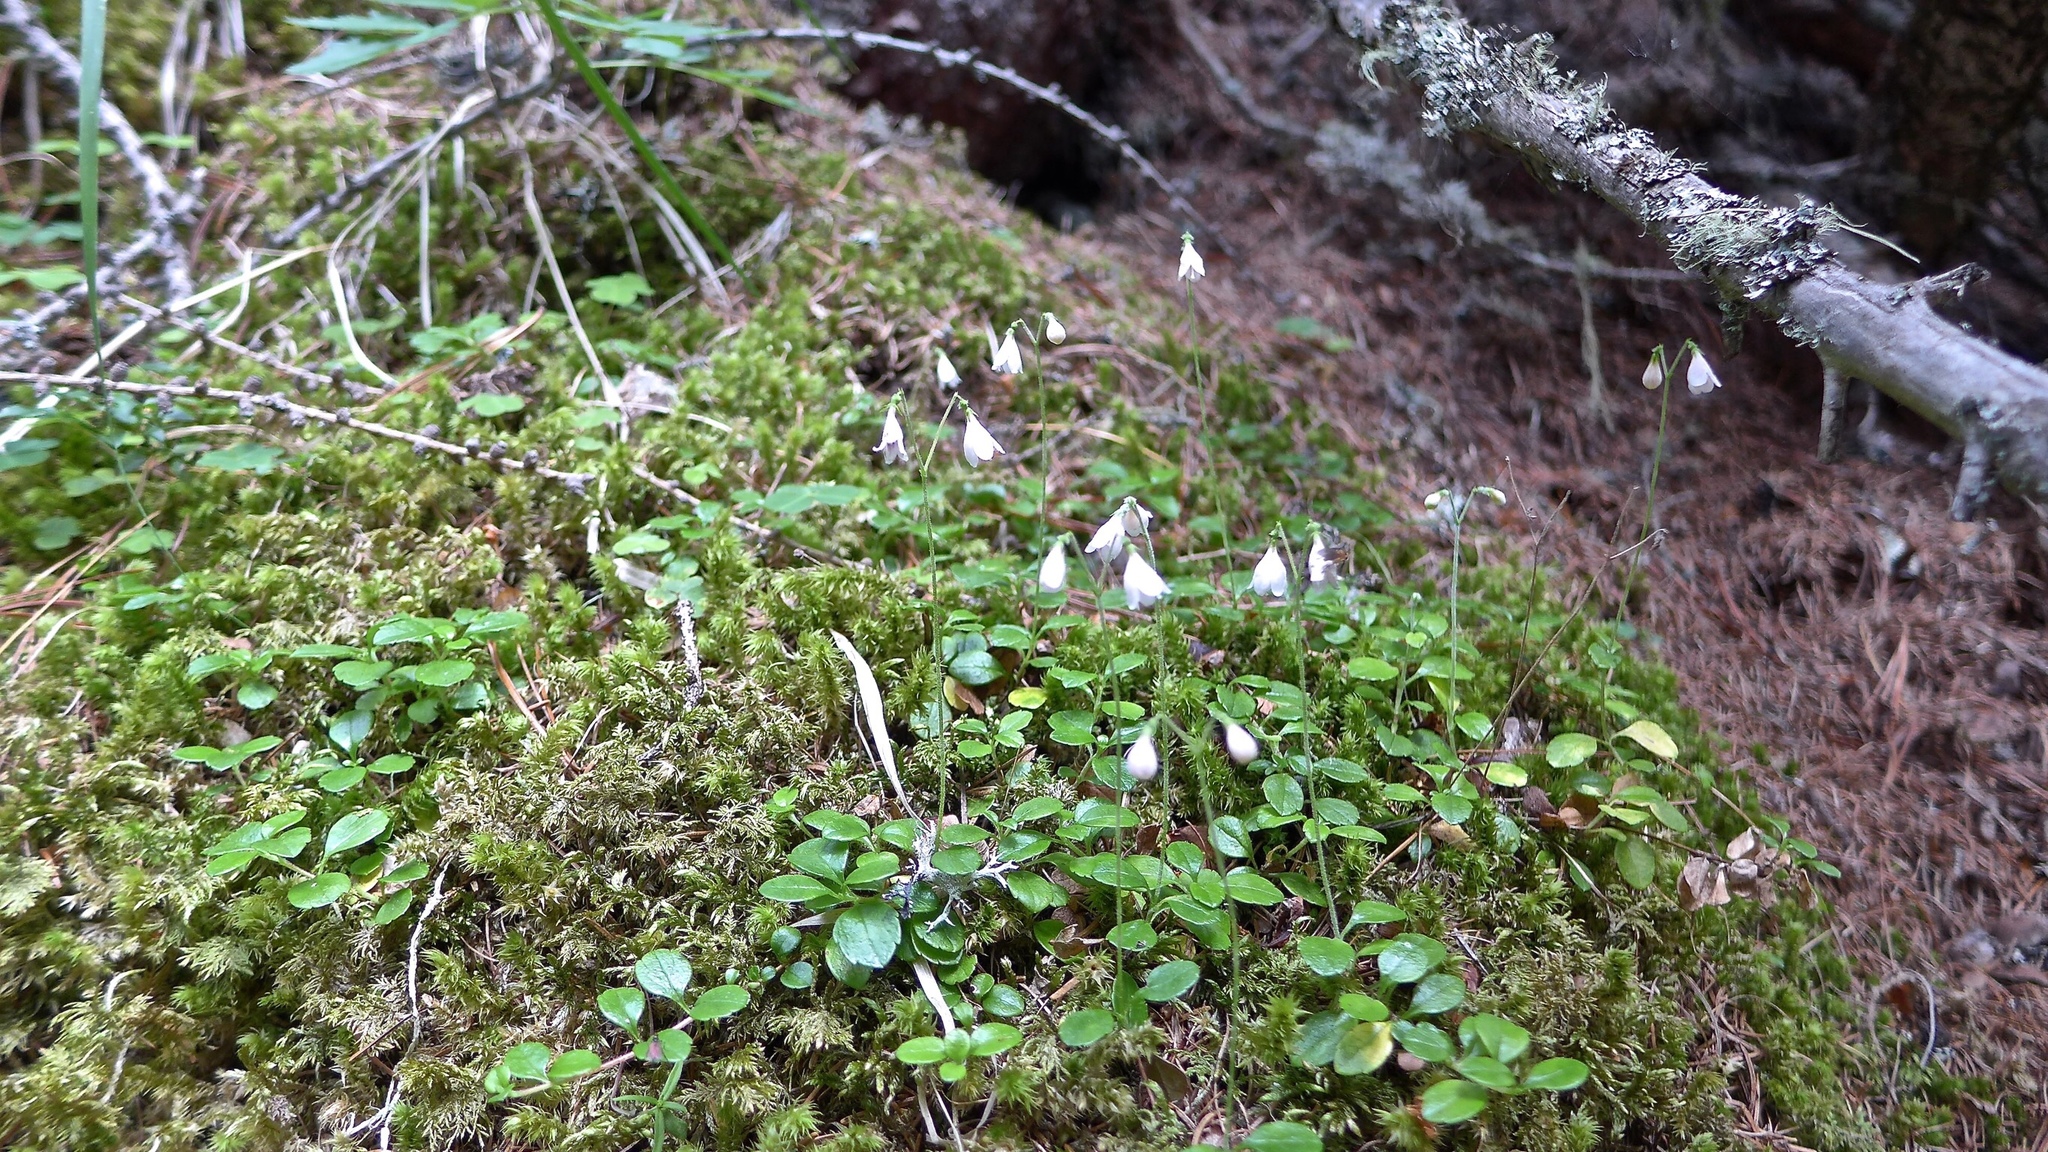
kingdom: Plantae
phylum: Tracheophyta
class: Magnoliopsida
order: Dipsacales
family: Caprifoliaceae
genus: Linnaea
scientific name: Linnaea borealis
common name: Twinflower
